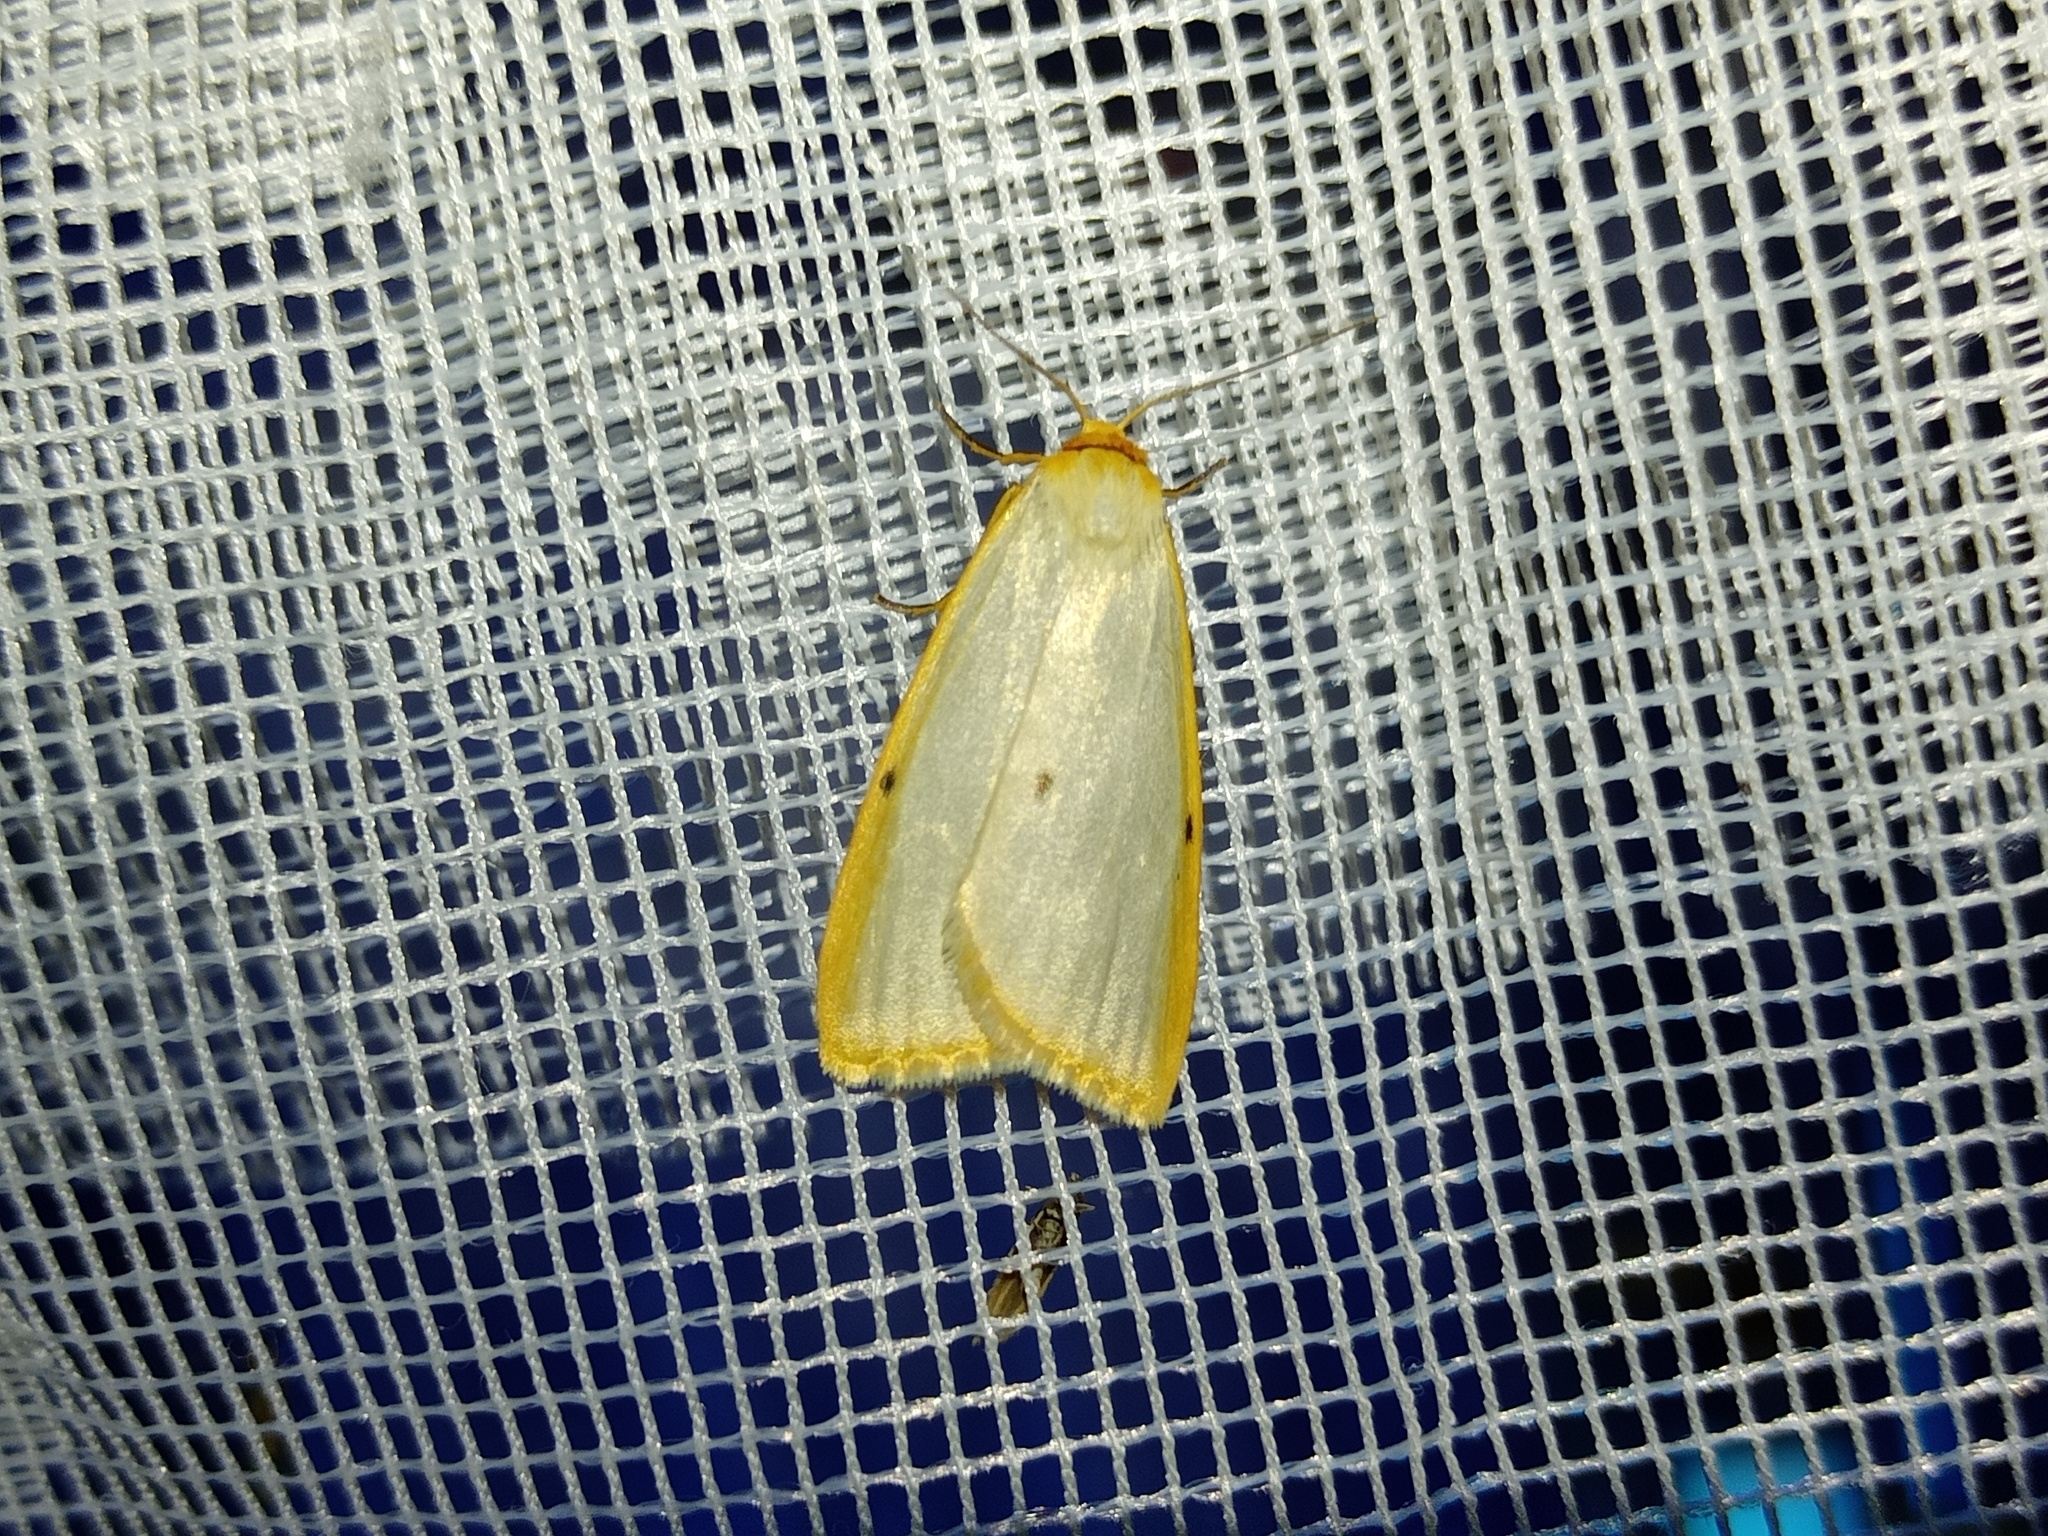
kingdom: Animalia
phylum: Arthropoda
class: Insecta
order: Lepidoptera
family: Erebidae
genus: Cybosia
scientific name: Cybosia mesomella
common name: Four-dotted footman
